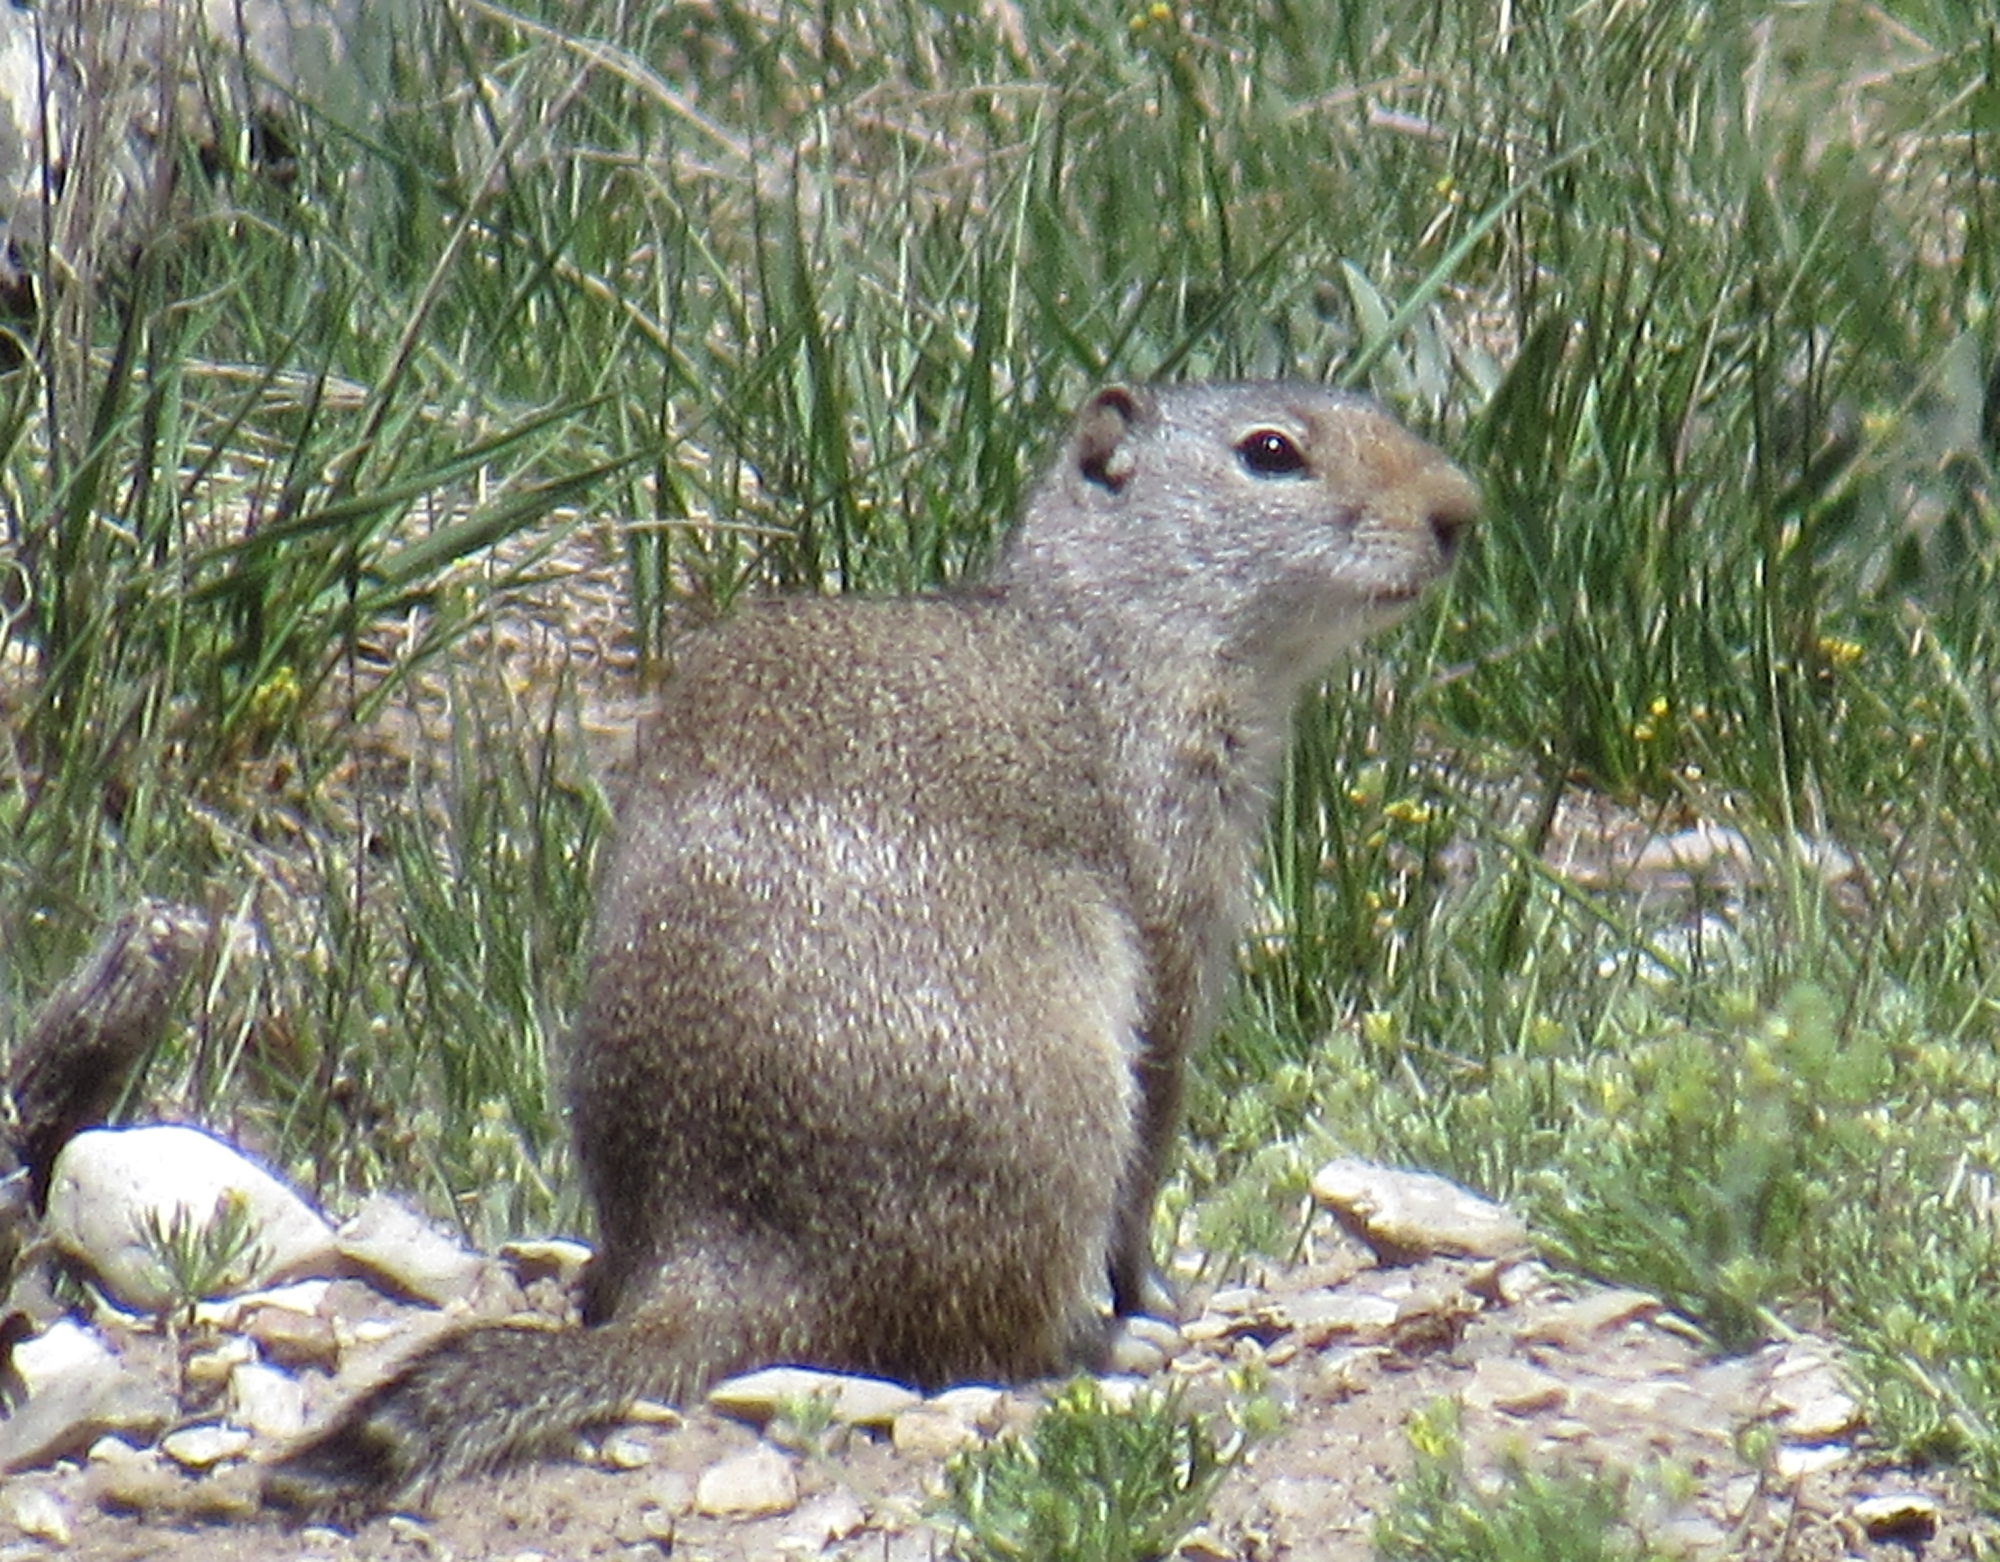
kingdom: Animalia
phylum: Chordata
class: Mammalia
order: Rodentia
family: Sciuridae
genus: Urocitellus
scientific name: Urocitellus armatus
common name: Uinta ground squirrel
